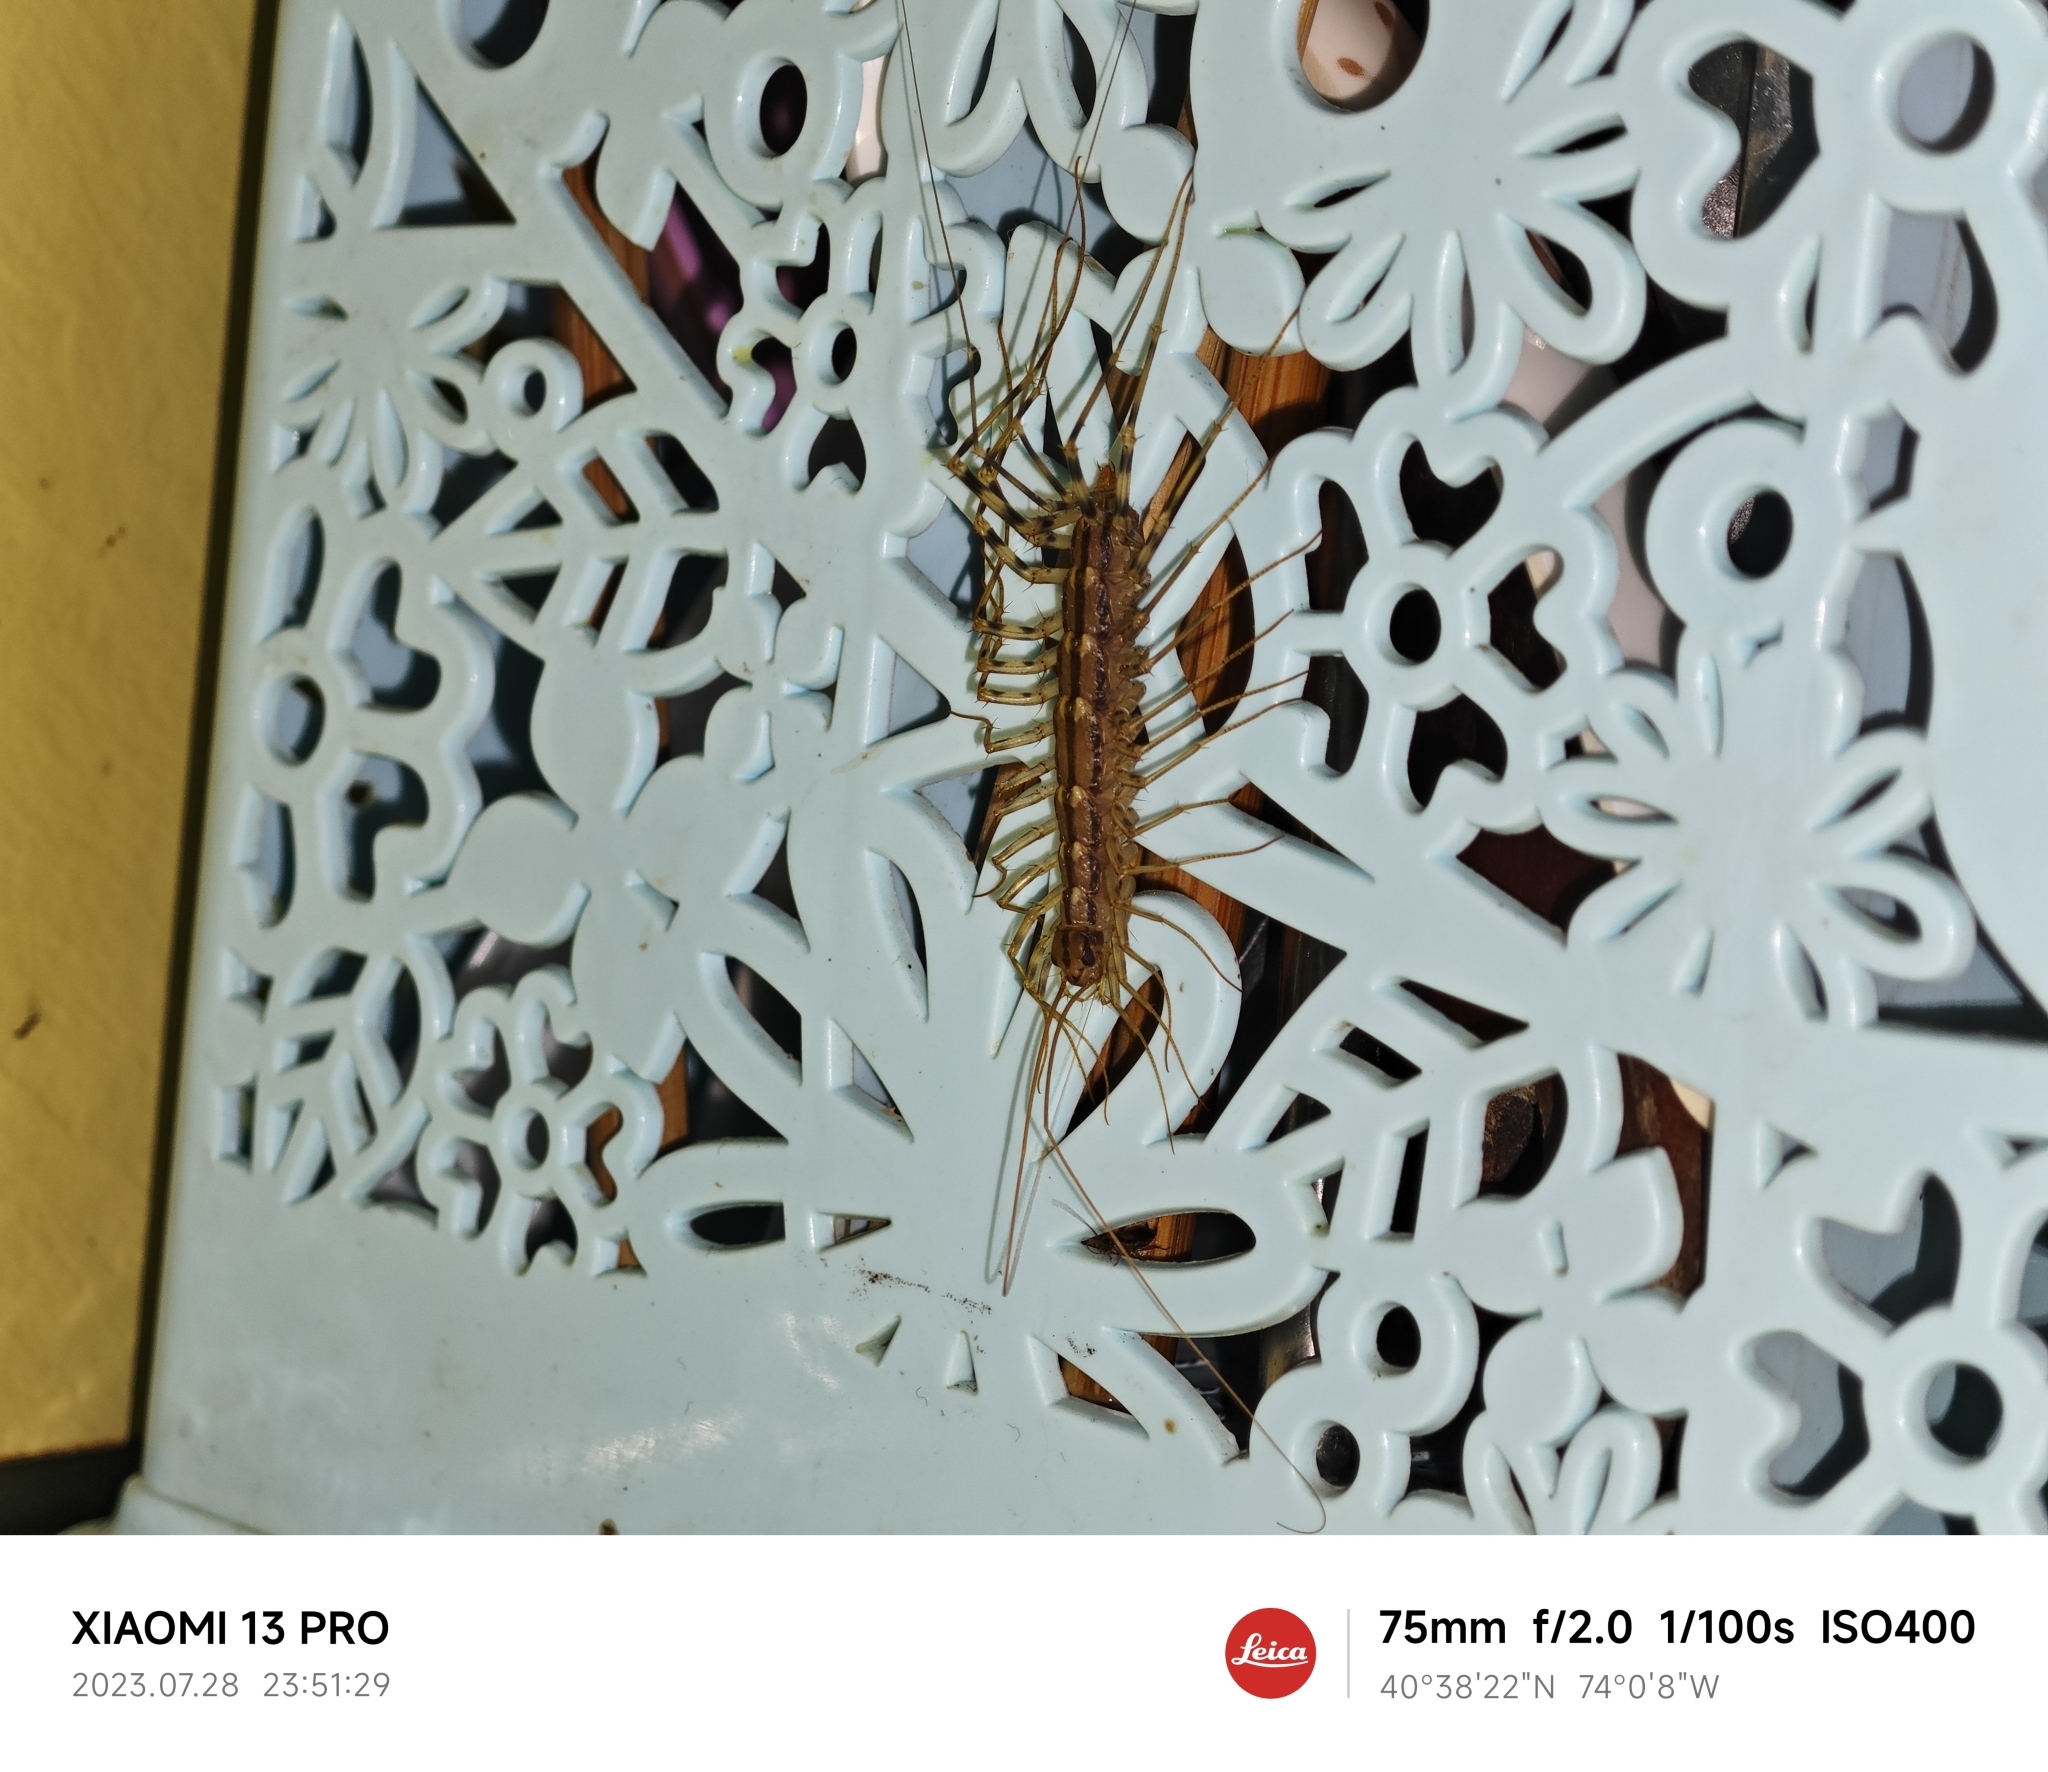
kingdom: Animalia
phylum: Arthropoda
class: Chilopoda
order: Scutigeromorpha
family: Scutigeridae
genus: Scutigera
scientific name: Scutigera coleoptrata
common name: House centipede
